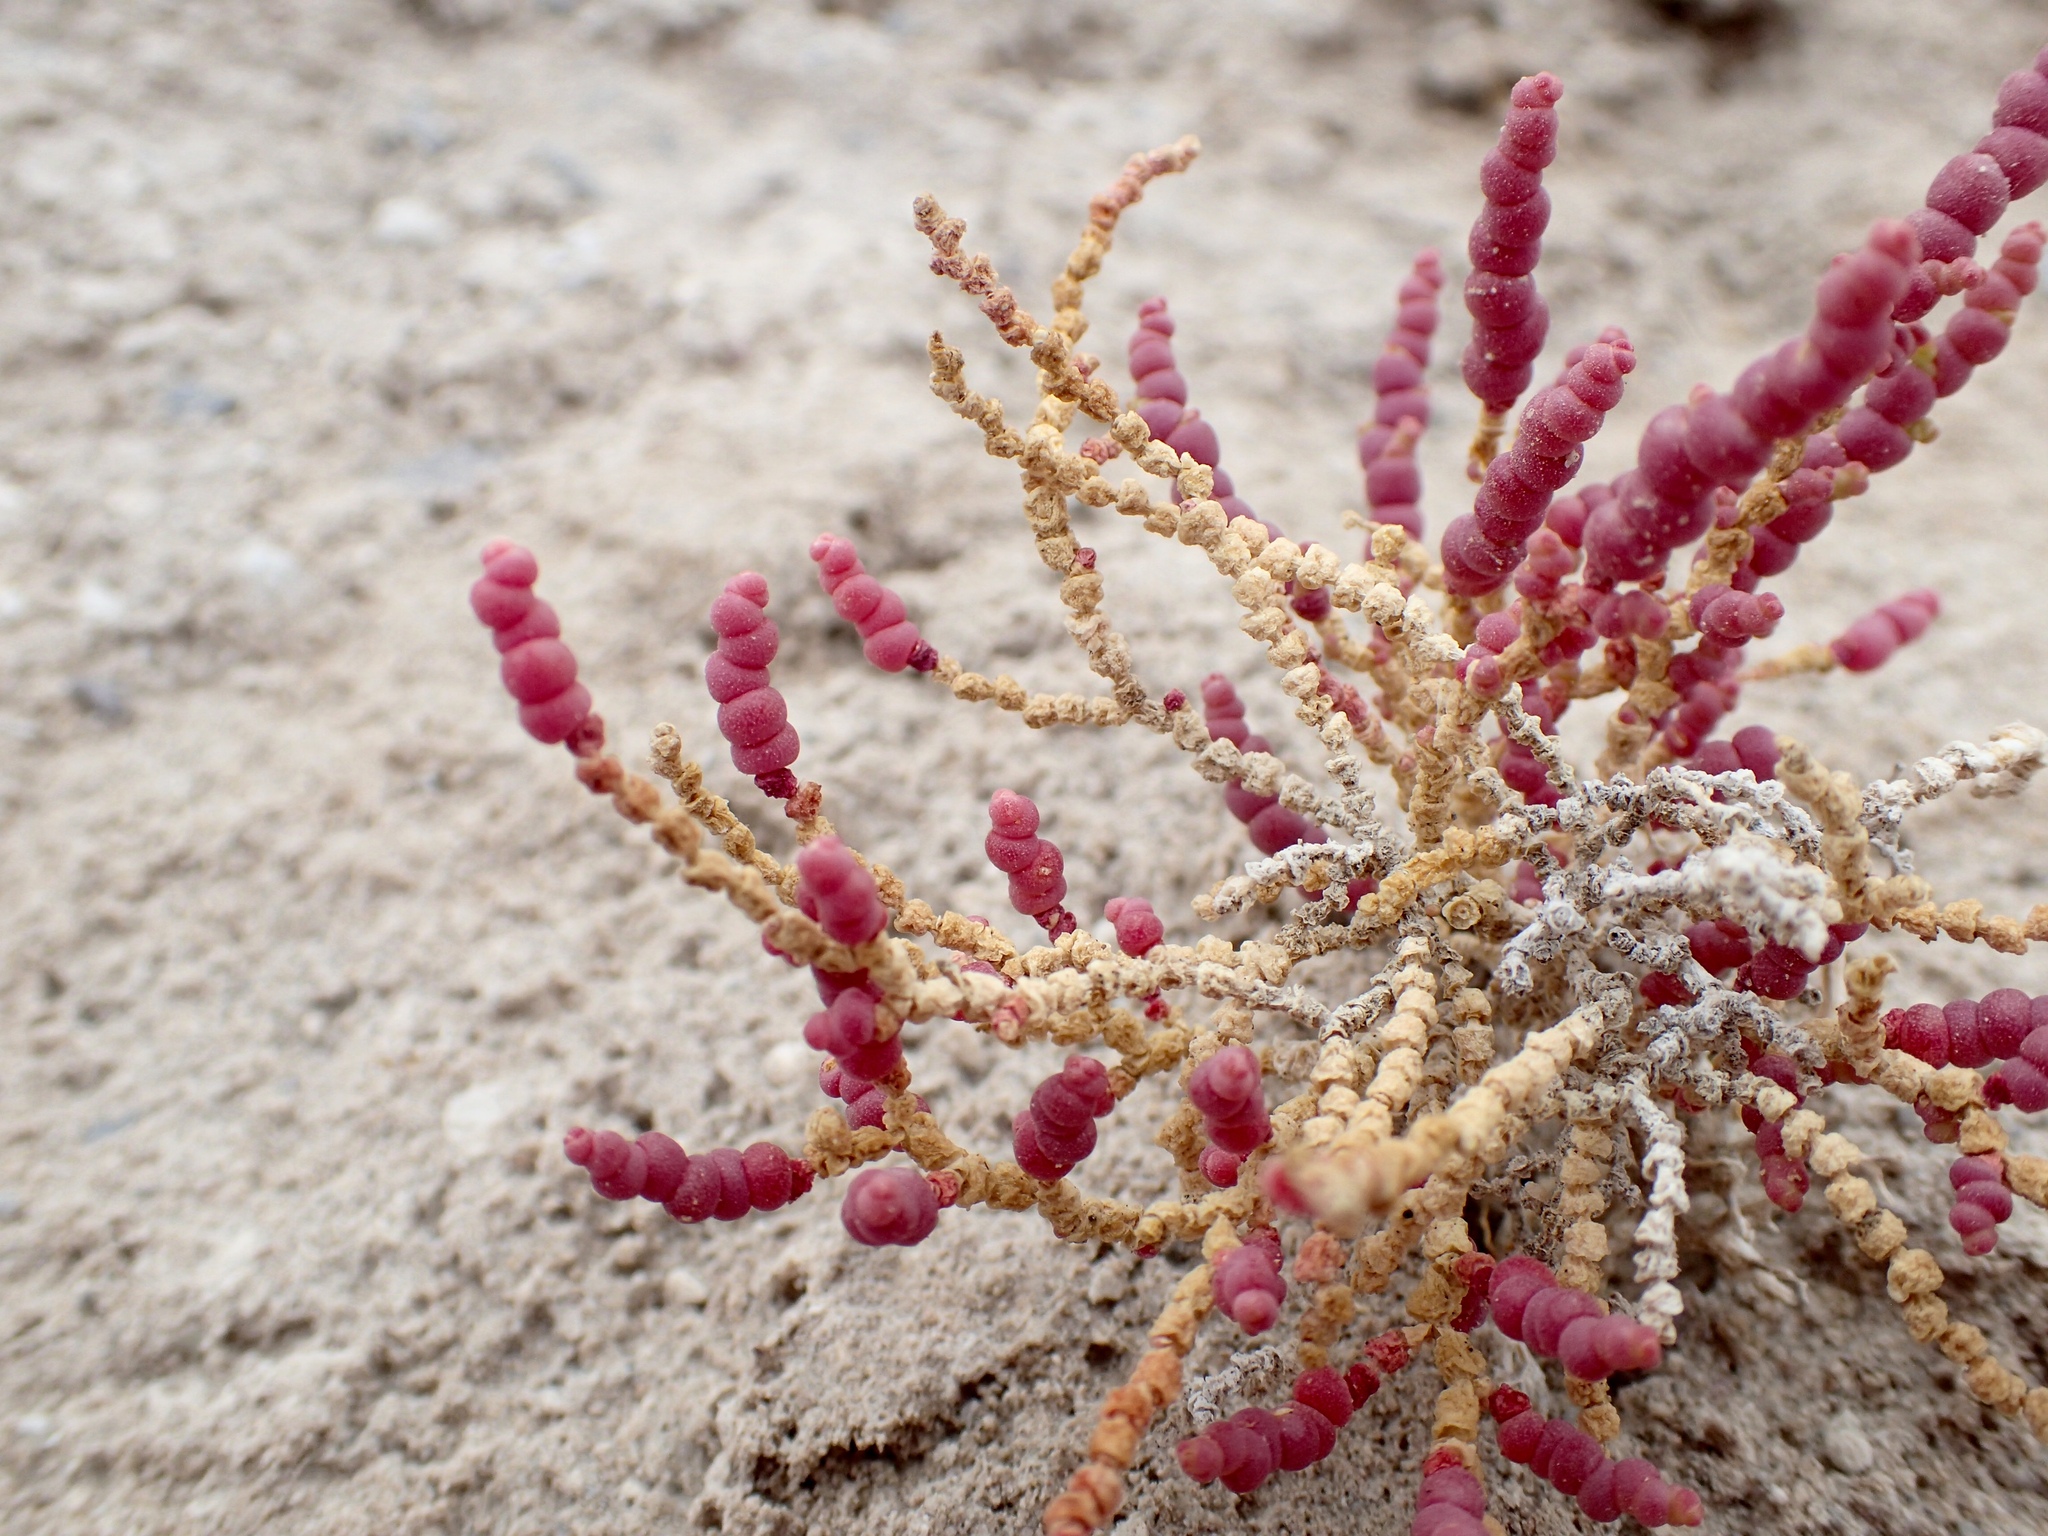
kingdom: Plantae
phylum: Tracheophyta
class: Magnoliopsida
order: Caryophyllales
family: Amaranthaceae
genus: Allenrolfea
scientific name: Allenrolfea occidentalis
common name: Iodine-bush
